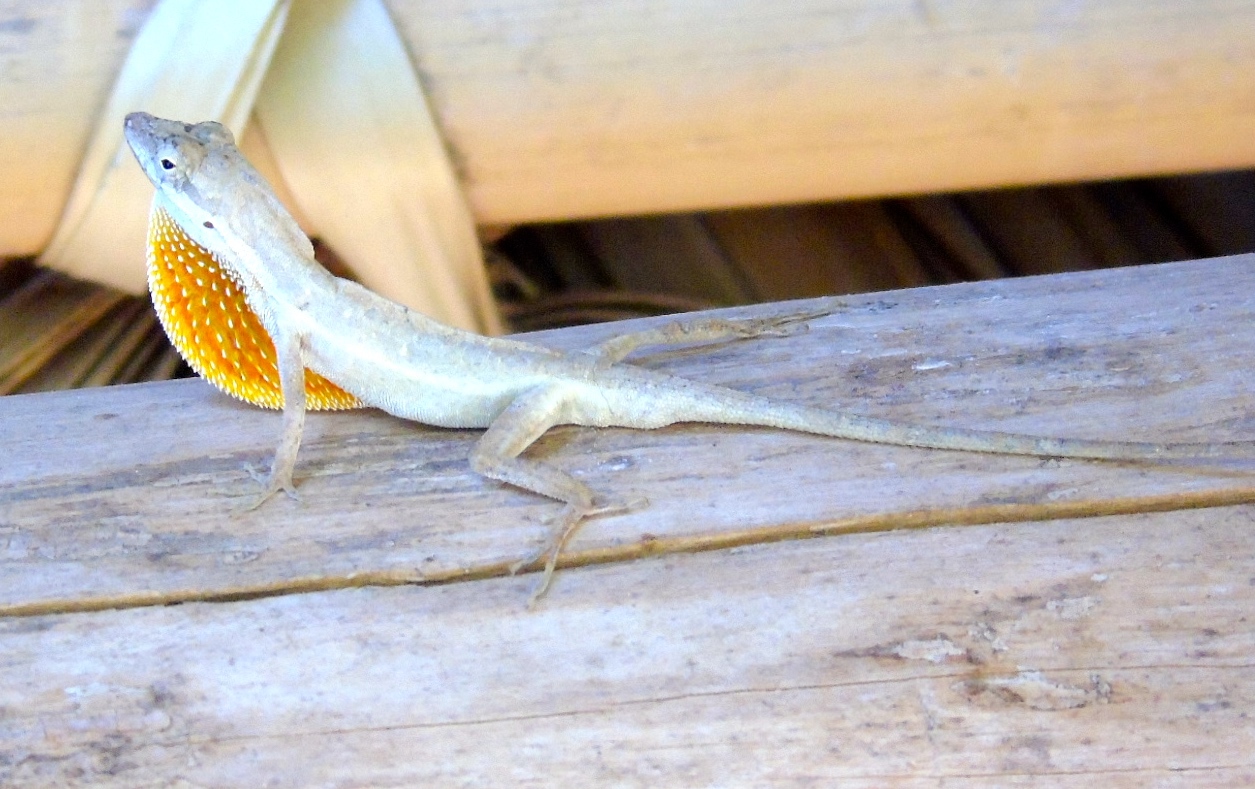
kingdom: Animalia
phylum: Chordata
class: Squamata
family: Dactyloidae
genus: Anolis
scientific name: Anolis nebulosus
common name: Clouded anole
